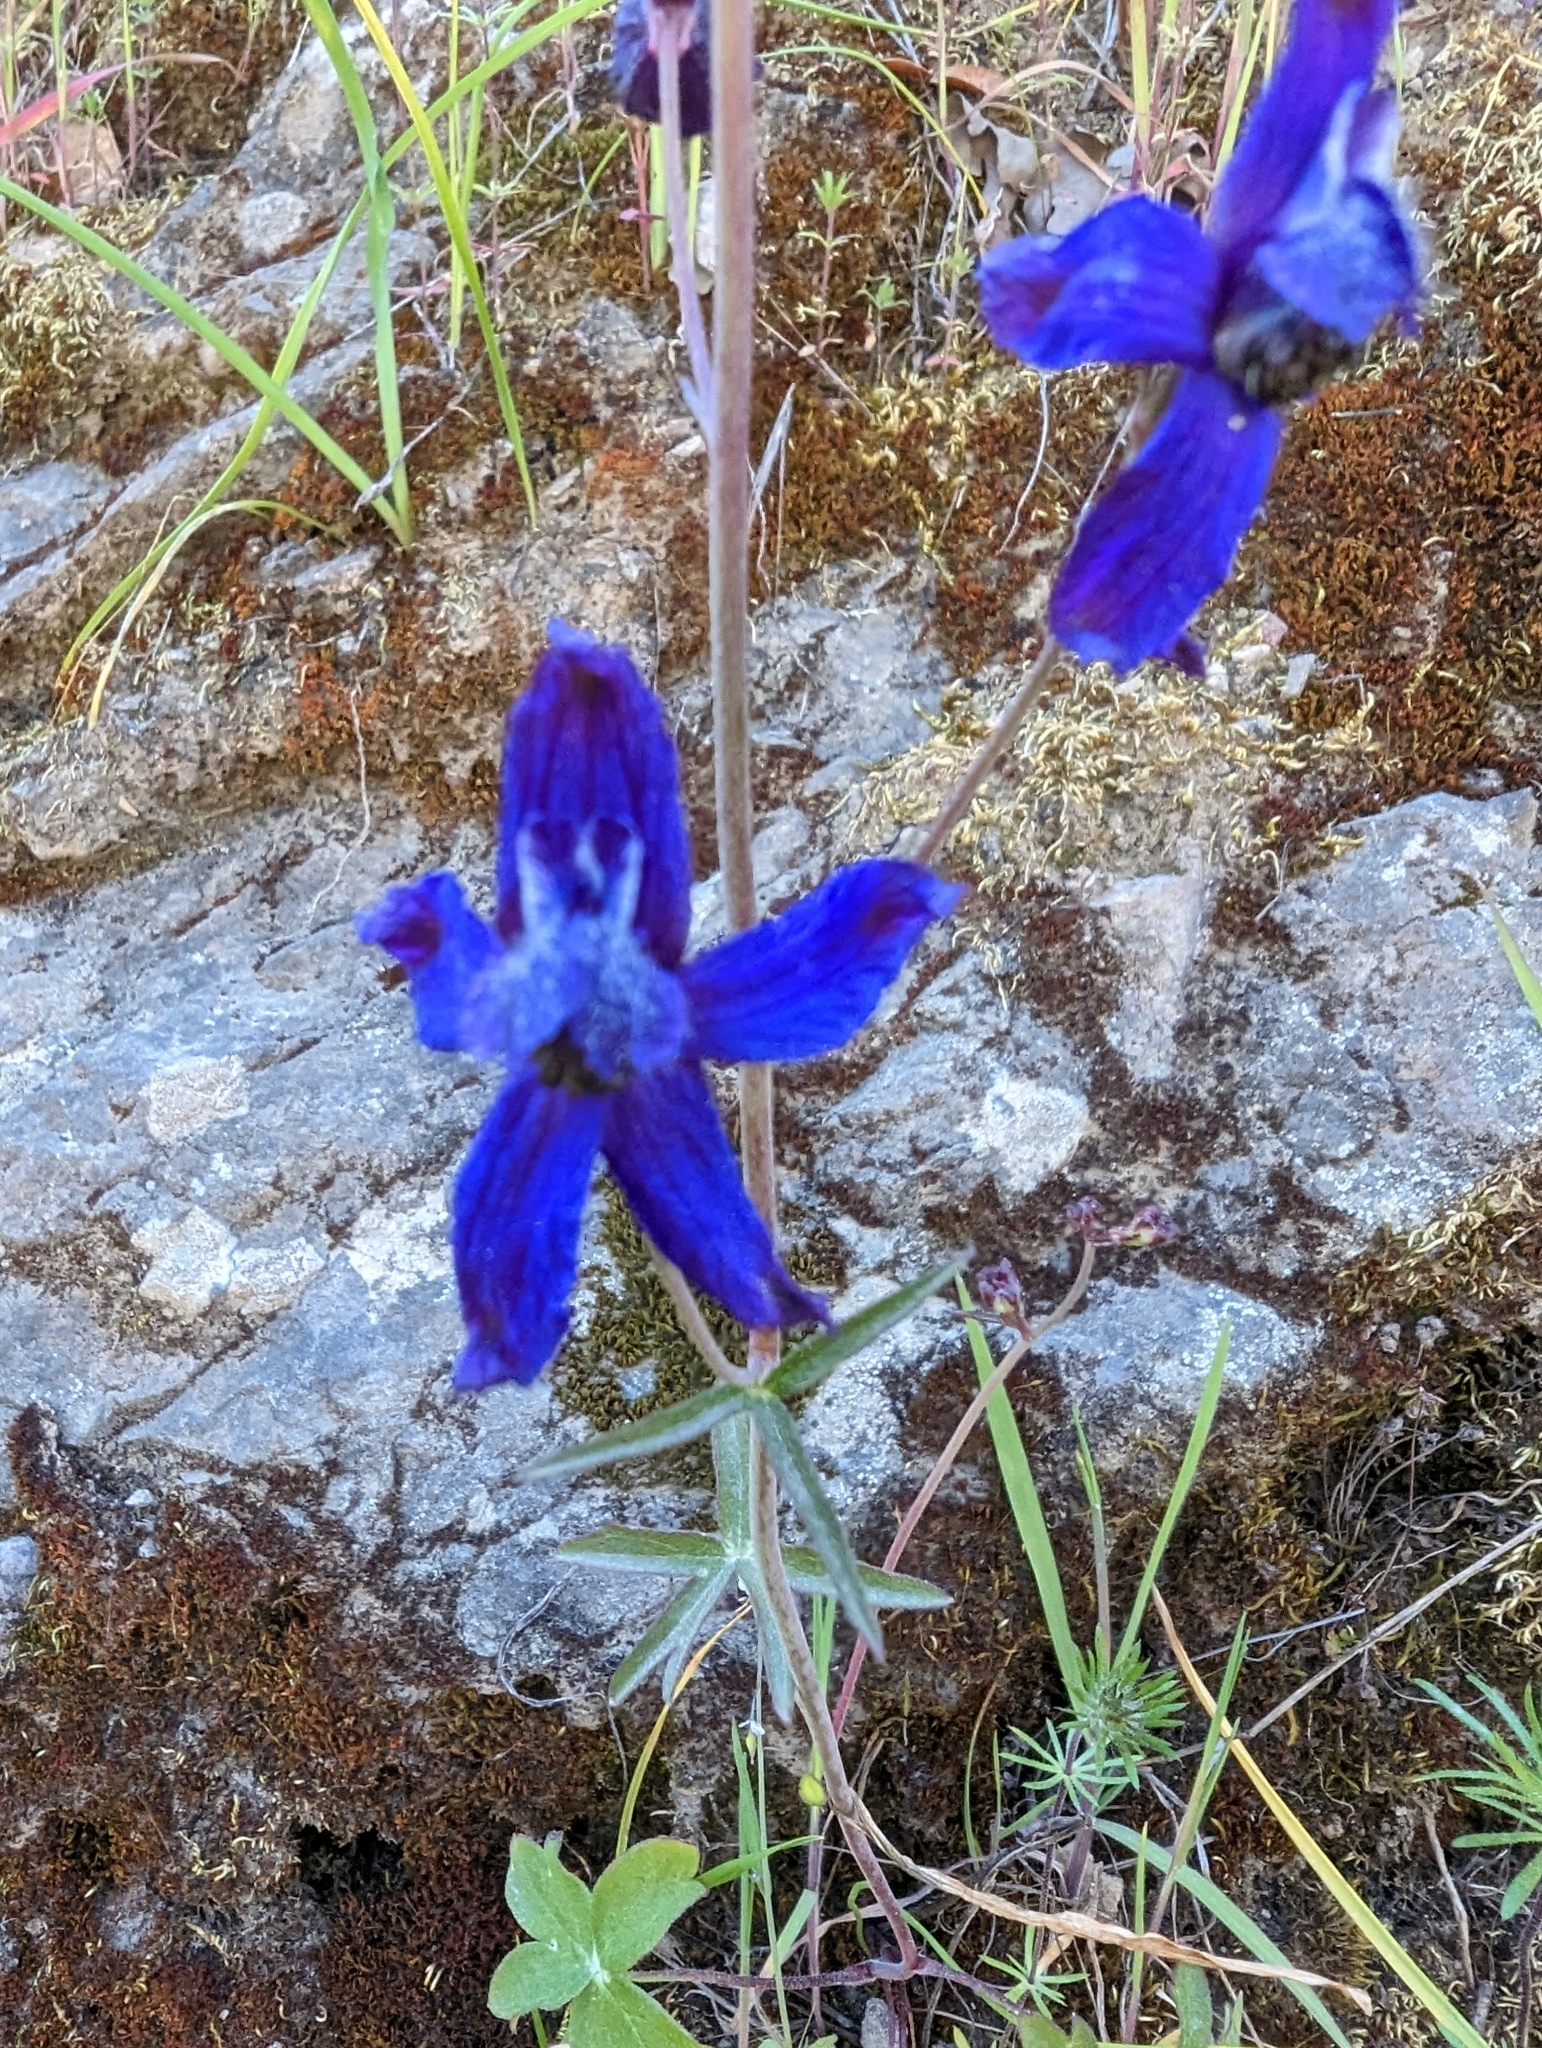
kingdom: Plantae
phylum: Tracheophyta
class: Magnoliopsida
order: Ranunculales
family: Ranunculaceae
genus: Delphinium
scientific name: Delphinium patens
